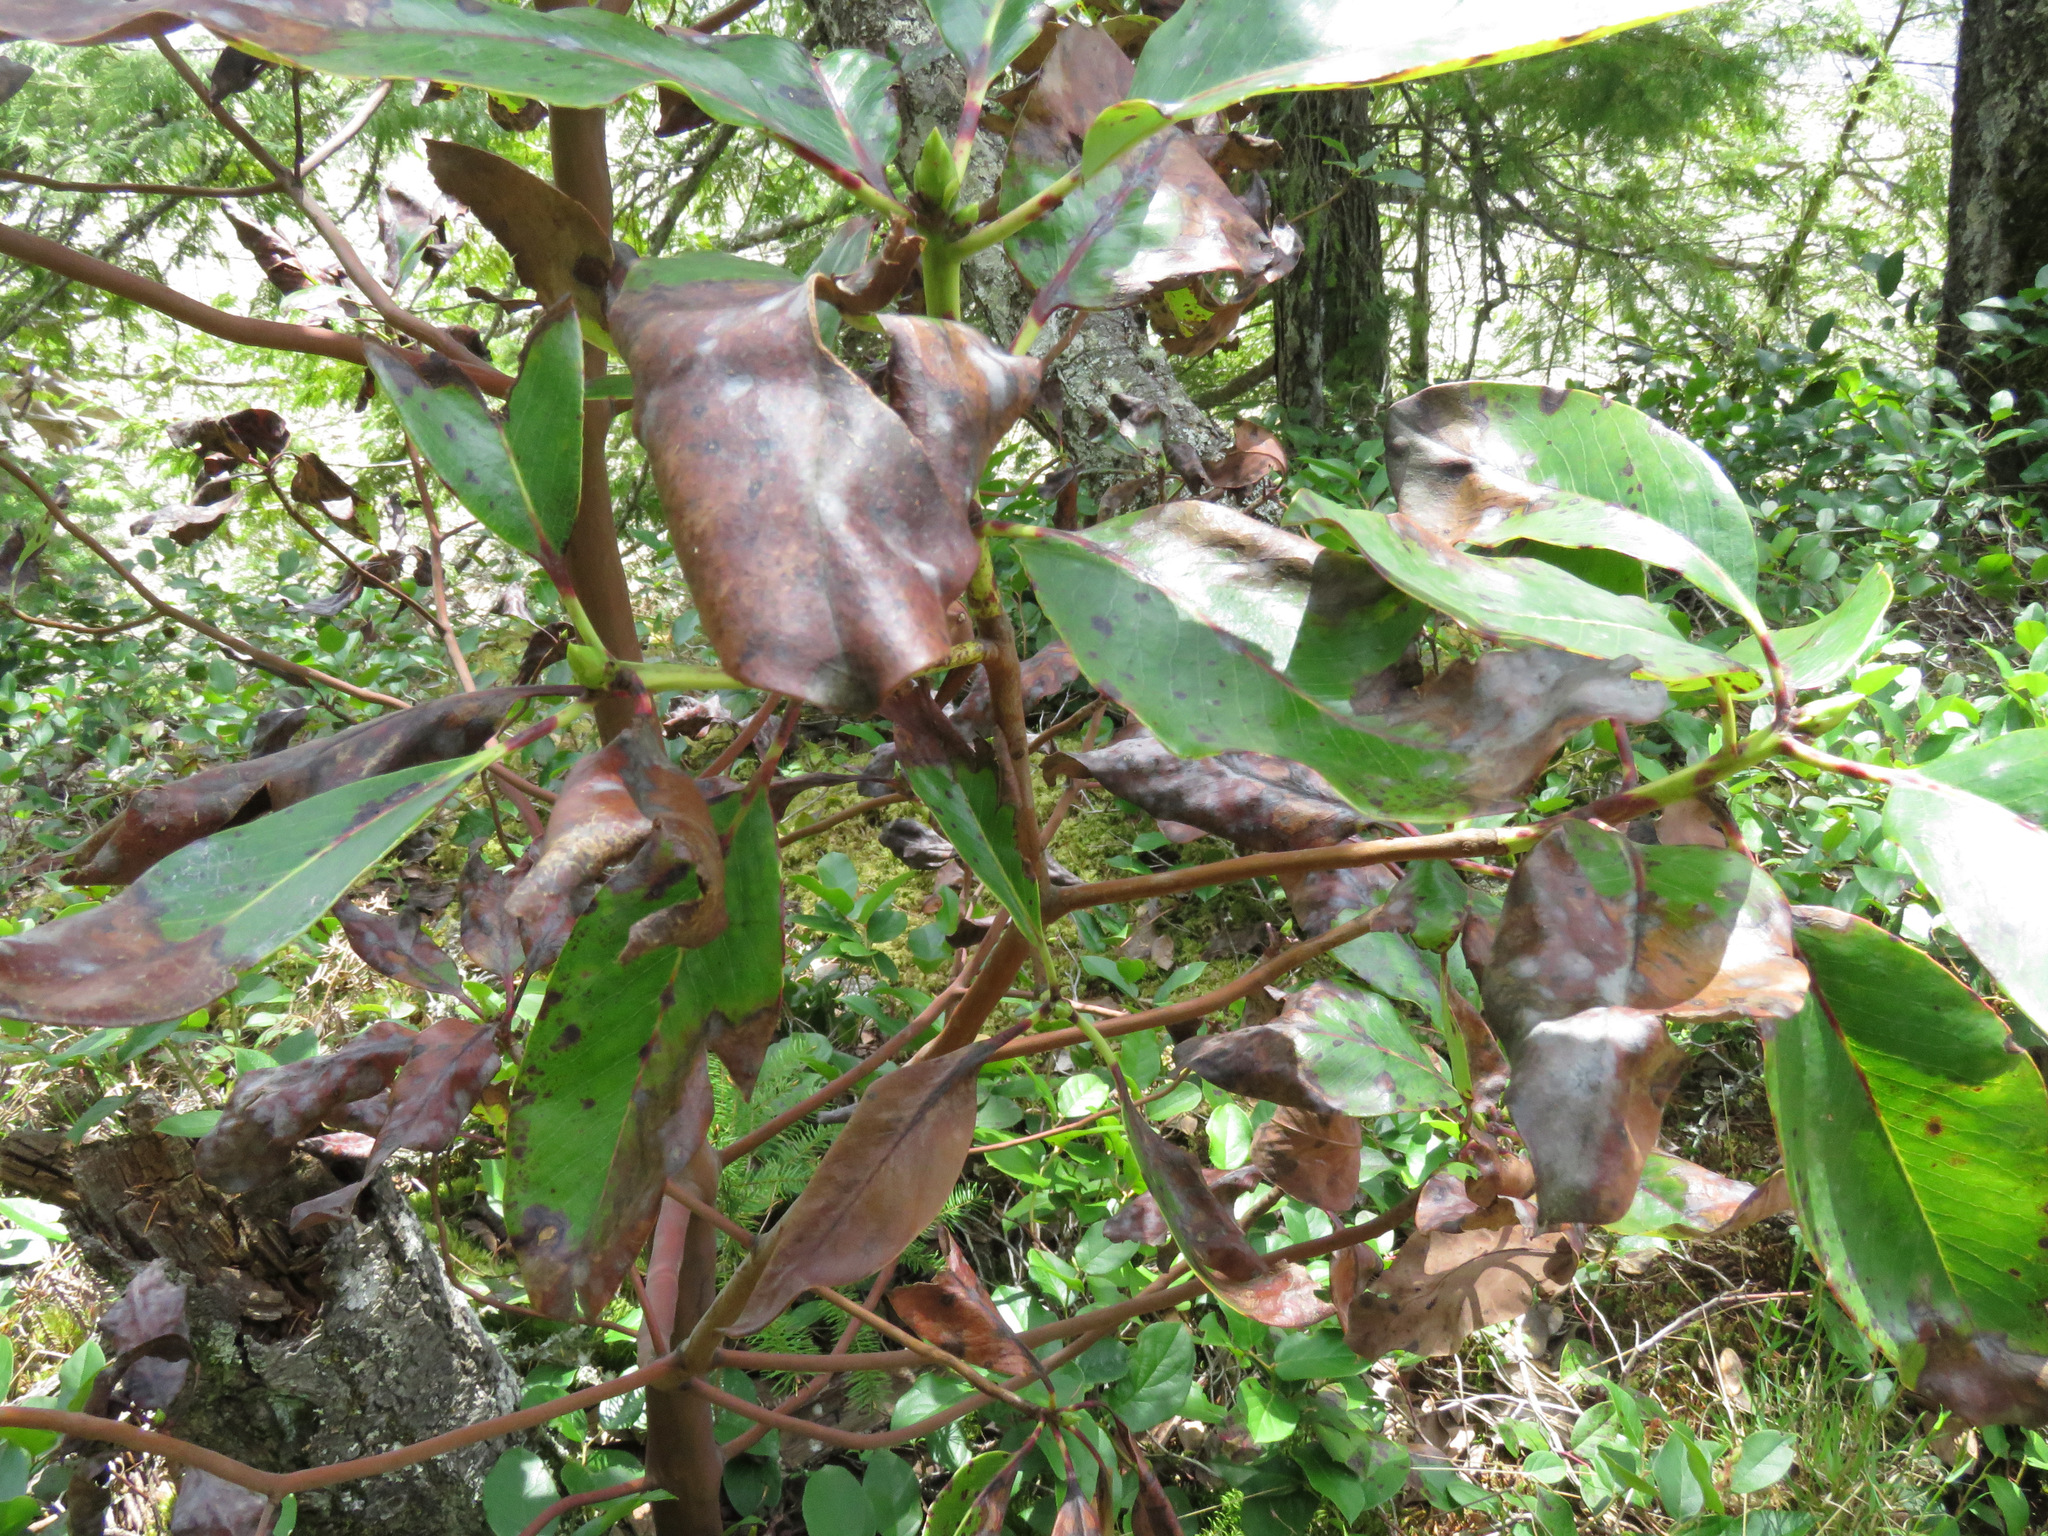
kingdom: Plantae
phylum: Tracheophyta
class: Magnoliopsida
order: Ericales
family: Ericaceae
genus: Arbutus
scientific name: Arbutus menziesii
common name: Pacific madrone
